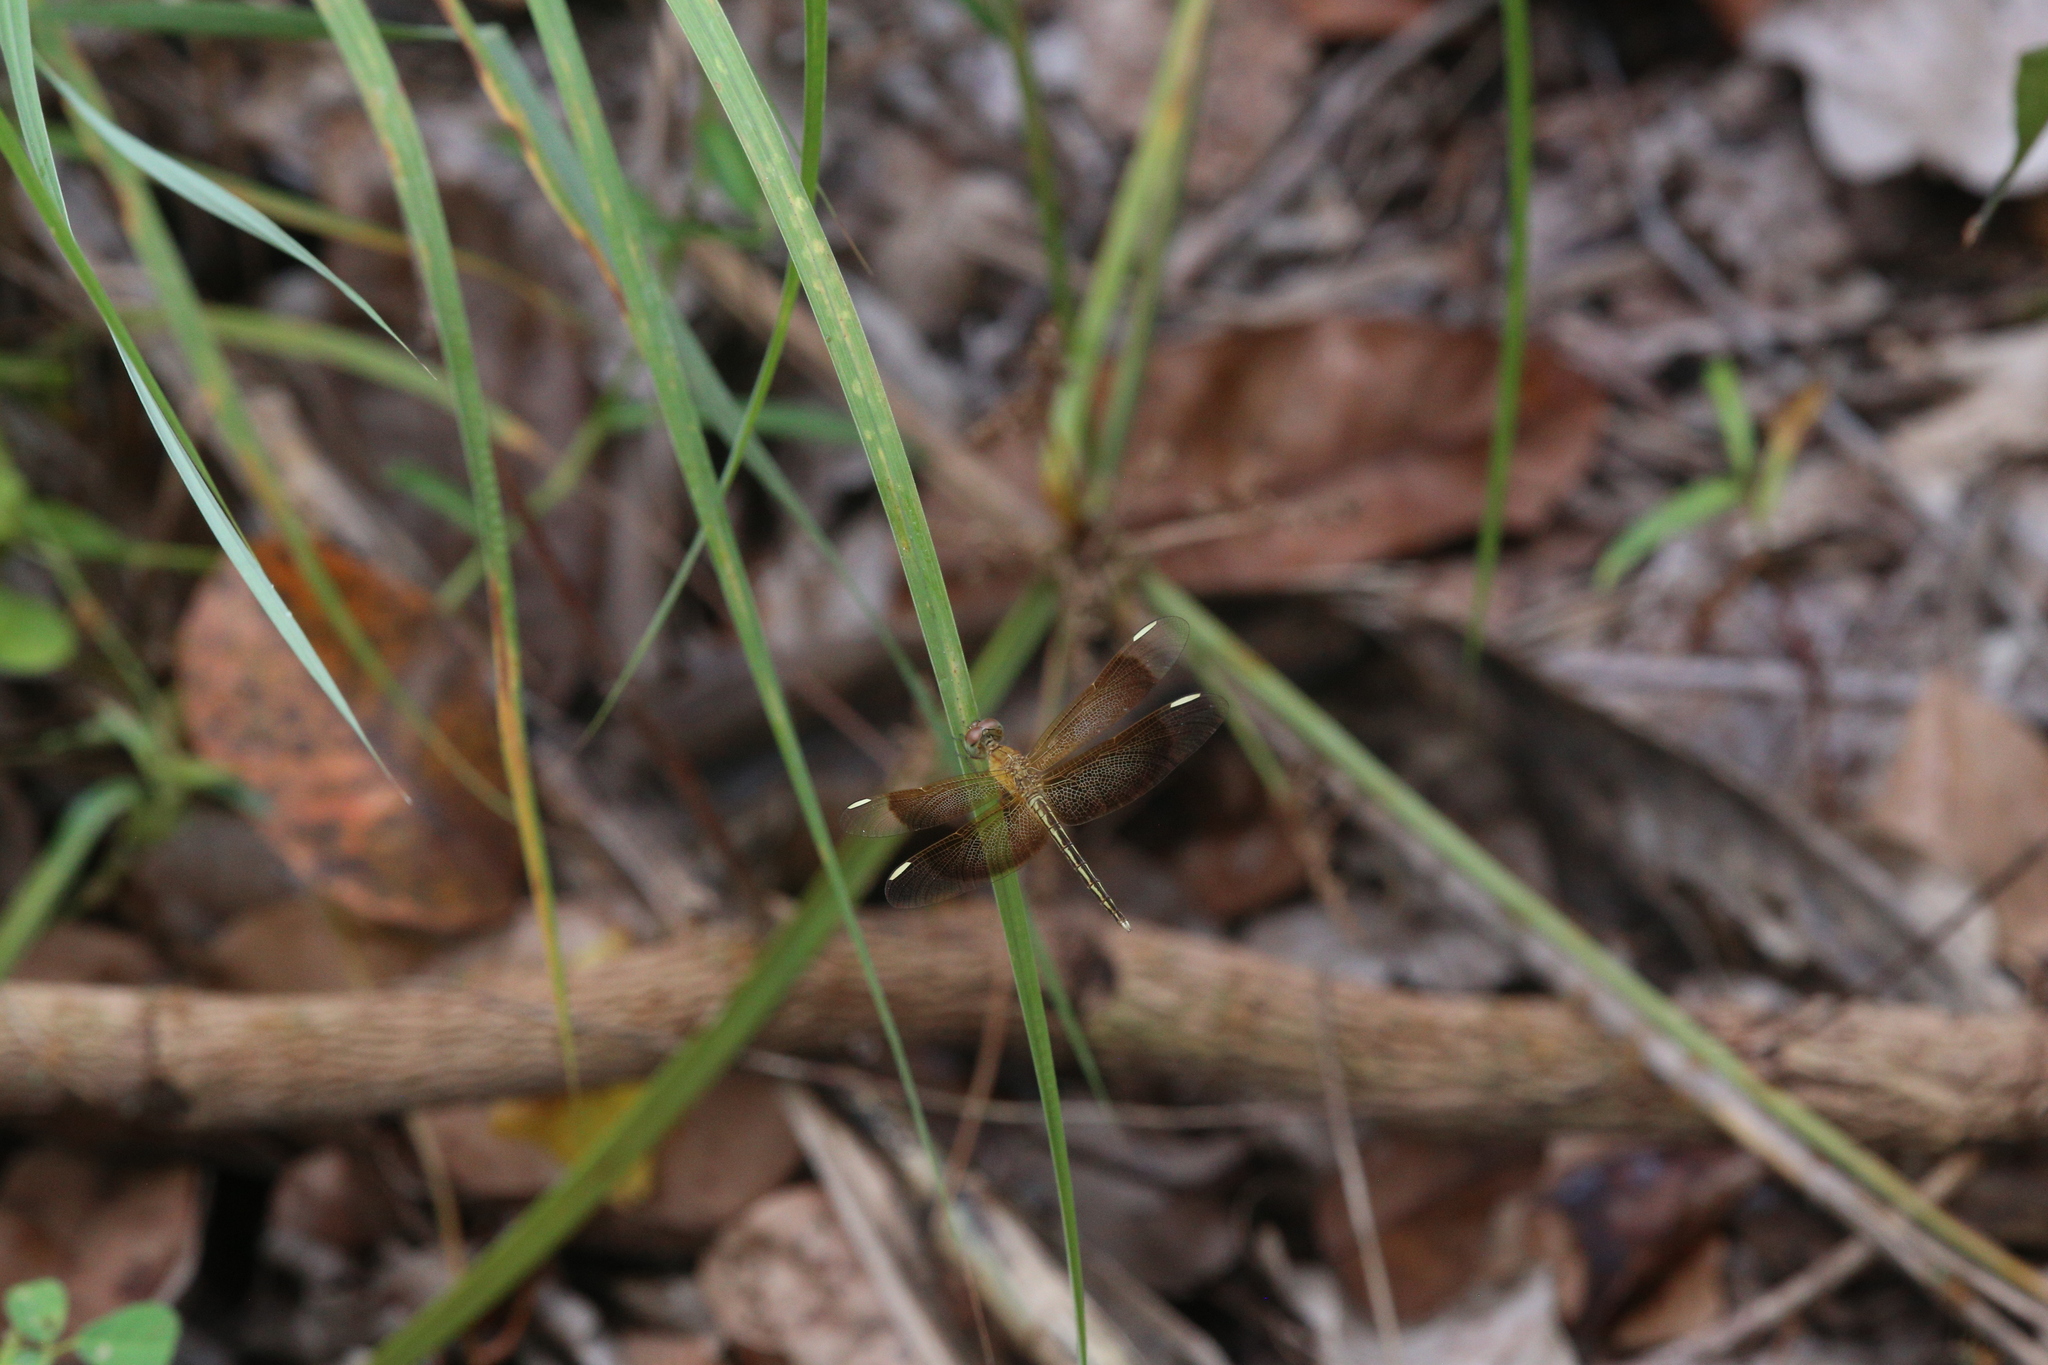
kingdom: Animalia
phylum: Arthropoda
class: Insecta
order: Odonata
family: Libellulidae
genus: Neurothemis
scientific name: Neurothemis stigmatizans
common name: Painted grasshawk
